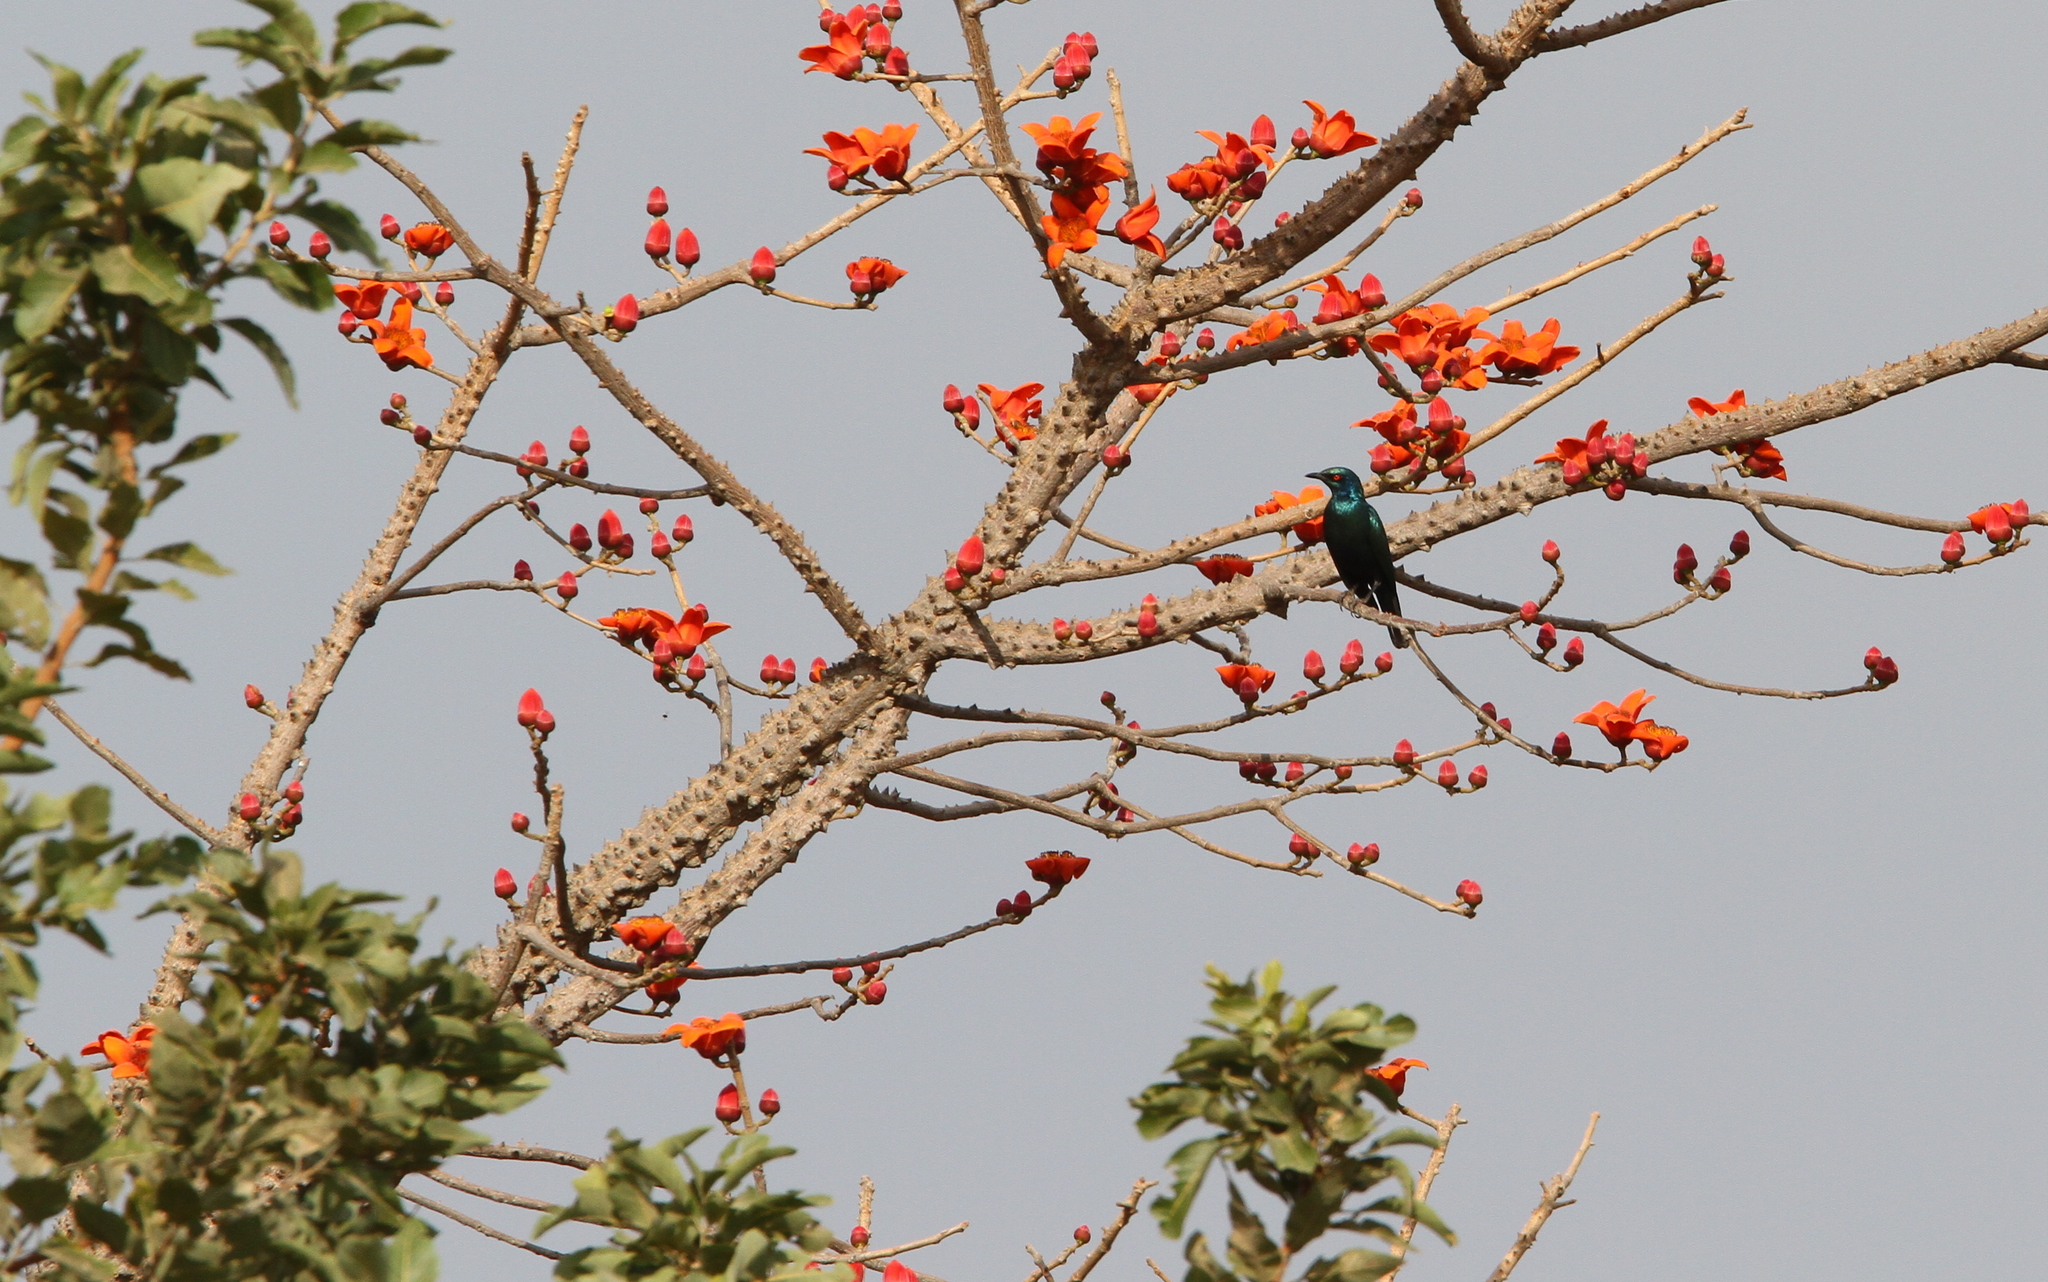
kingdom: Animalia
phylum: Chordata
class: Aves
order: Passeriformes
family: Sturnidae
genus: Lamprotornis
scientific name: Lamprotornis chalcurus
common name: Bronze-tailed starling
